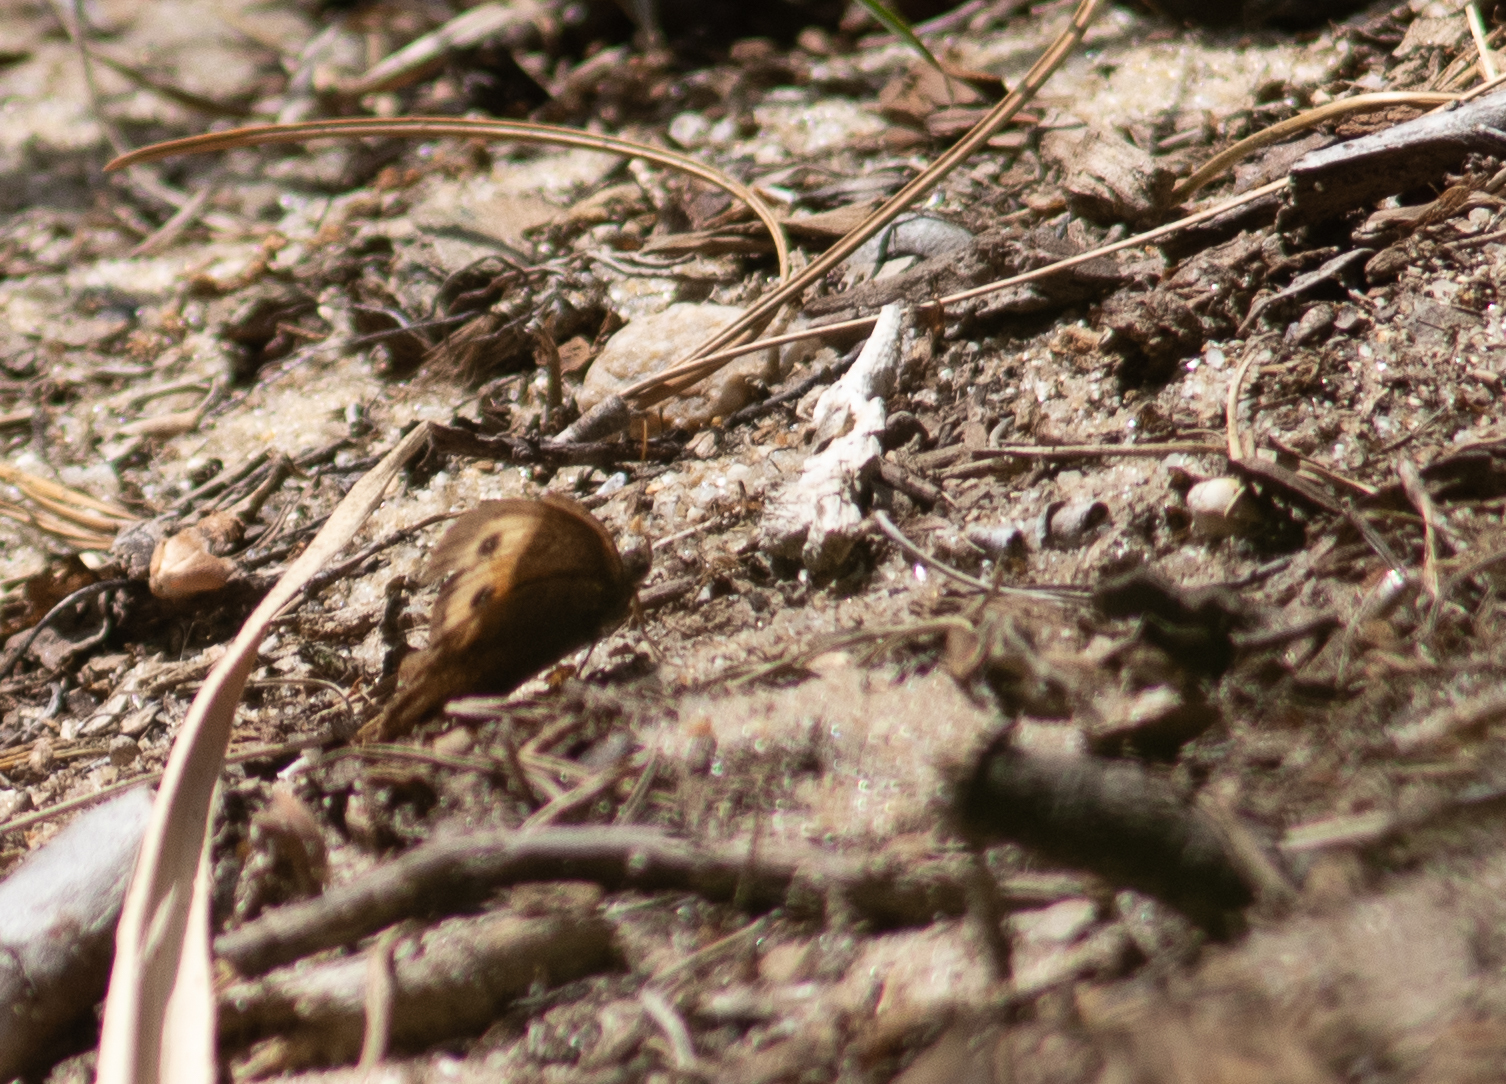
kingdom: Animalia
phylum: Arthropoda
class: Insecta
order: Lepidoptera
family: Nymphalidae
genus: Cercyonis
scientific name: Cercyonis pegala
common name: Common wood-nymph
